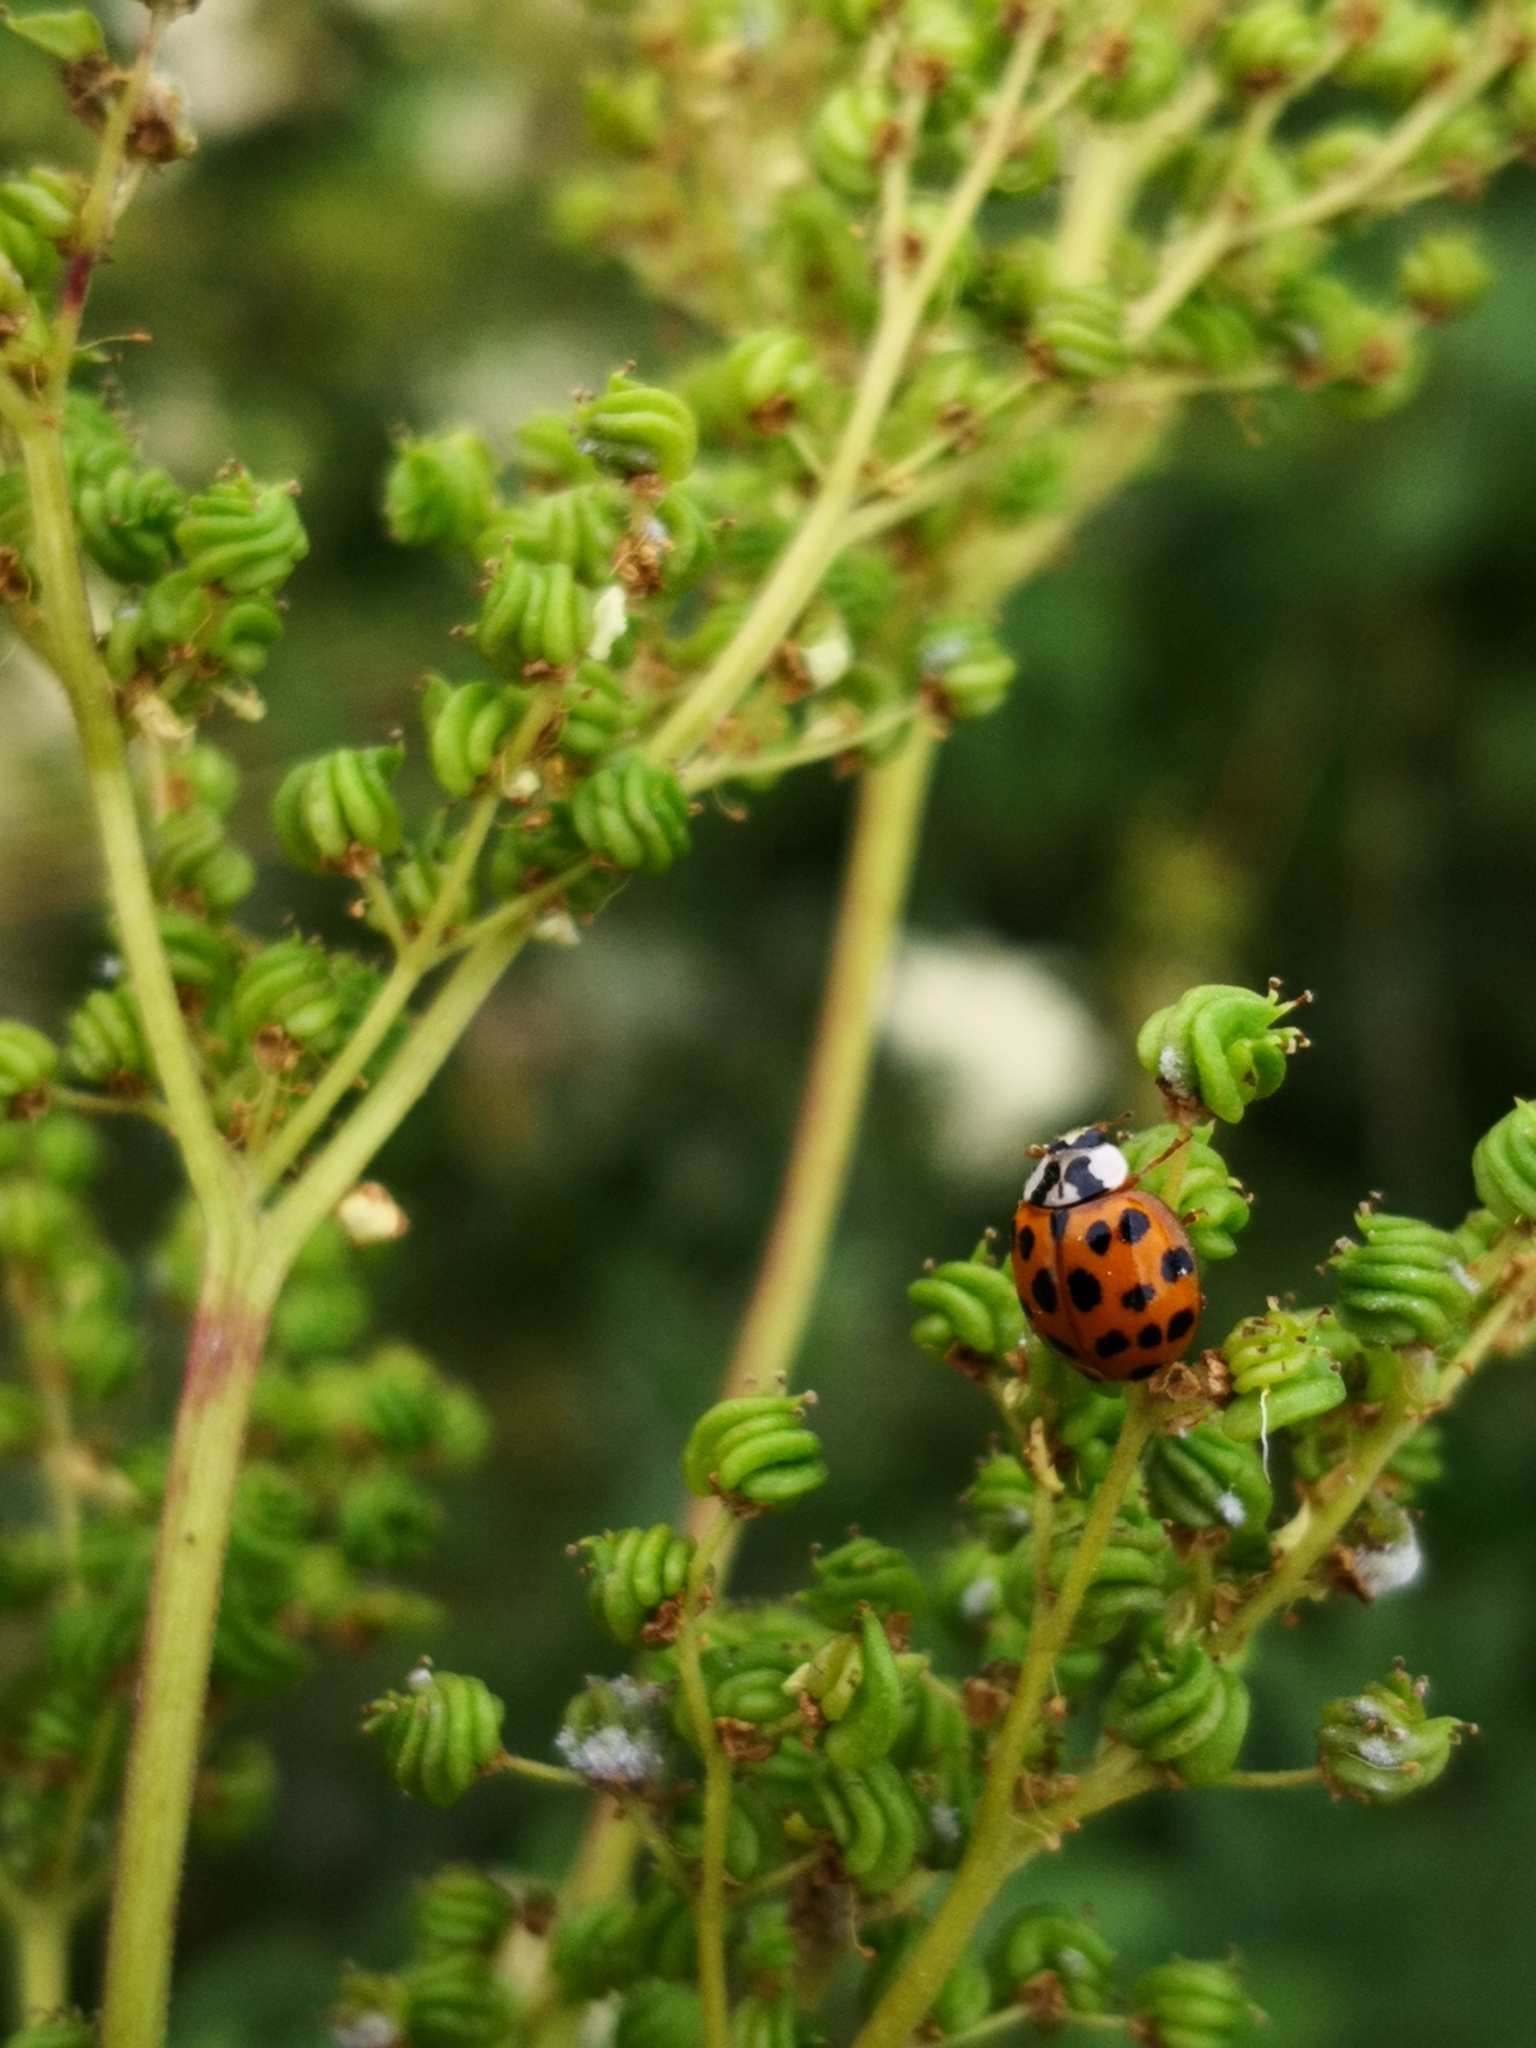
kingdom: Animalia
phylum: Arthropoda
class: Insecta
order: Coleoptera
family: Coccinellidae
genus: Harmonia
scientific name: Harmonia axyridis
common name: Harlequin ladybird
